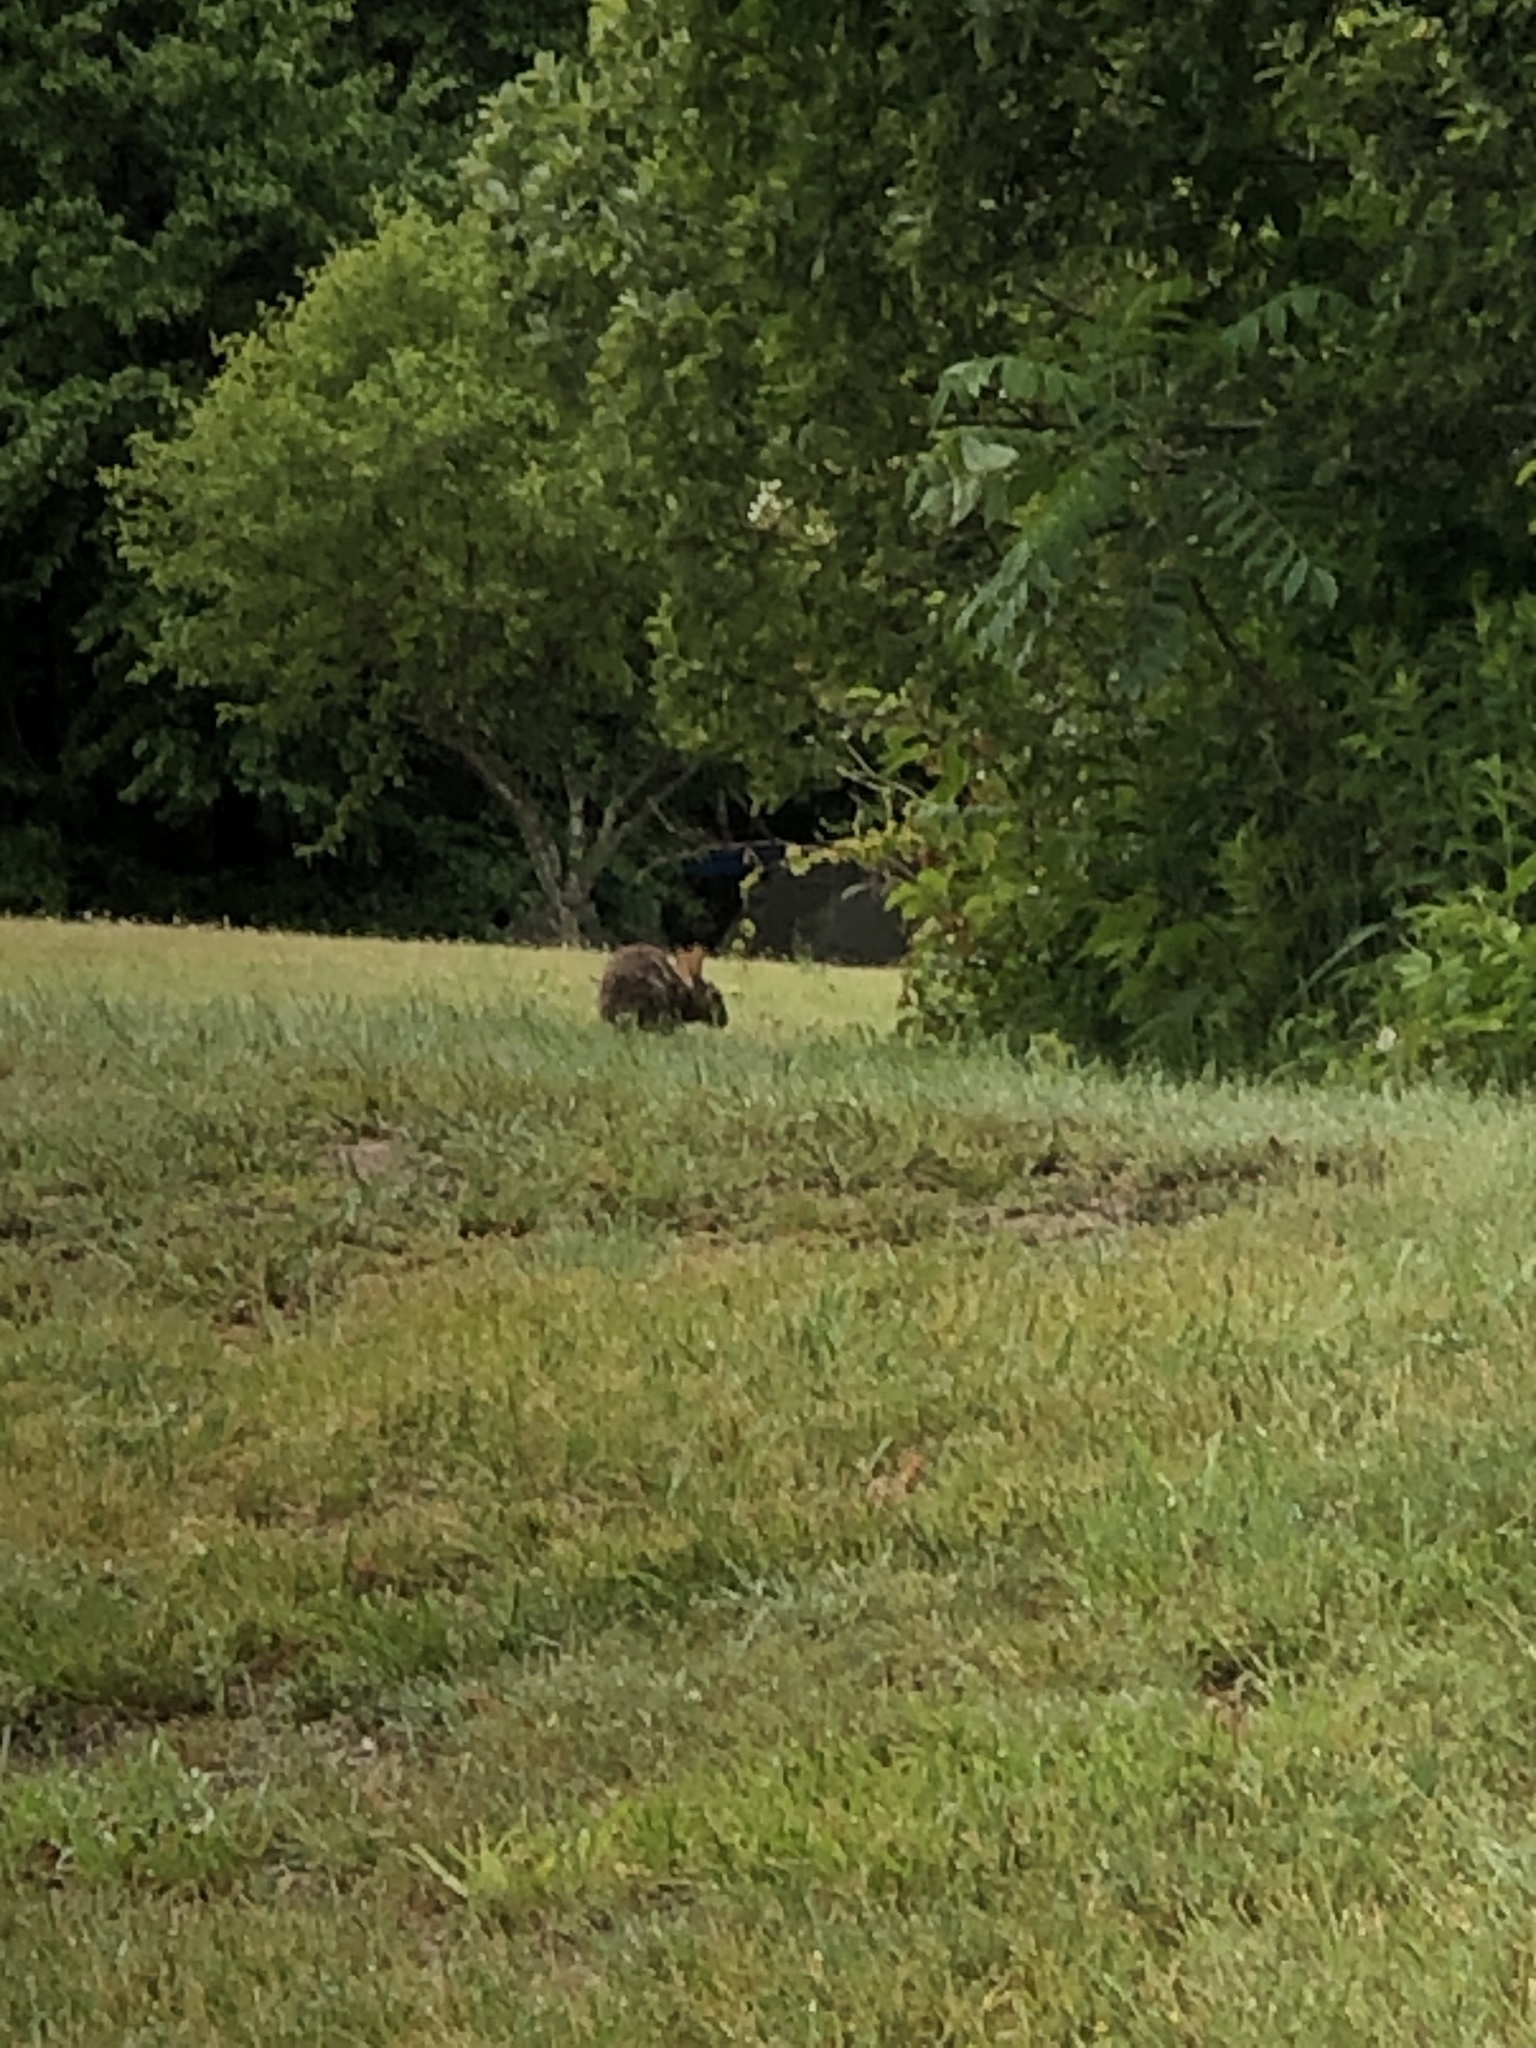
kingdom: Animalia
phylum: Chordata
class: Mammalia
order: Lagomorpha
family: Leporidae
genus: Sylvilagus
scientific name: Sylvilagus floridanus
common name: Eastern cottontail
